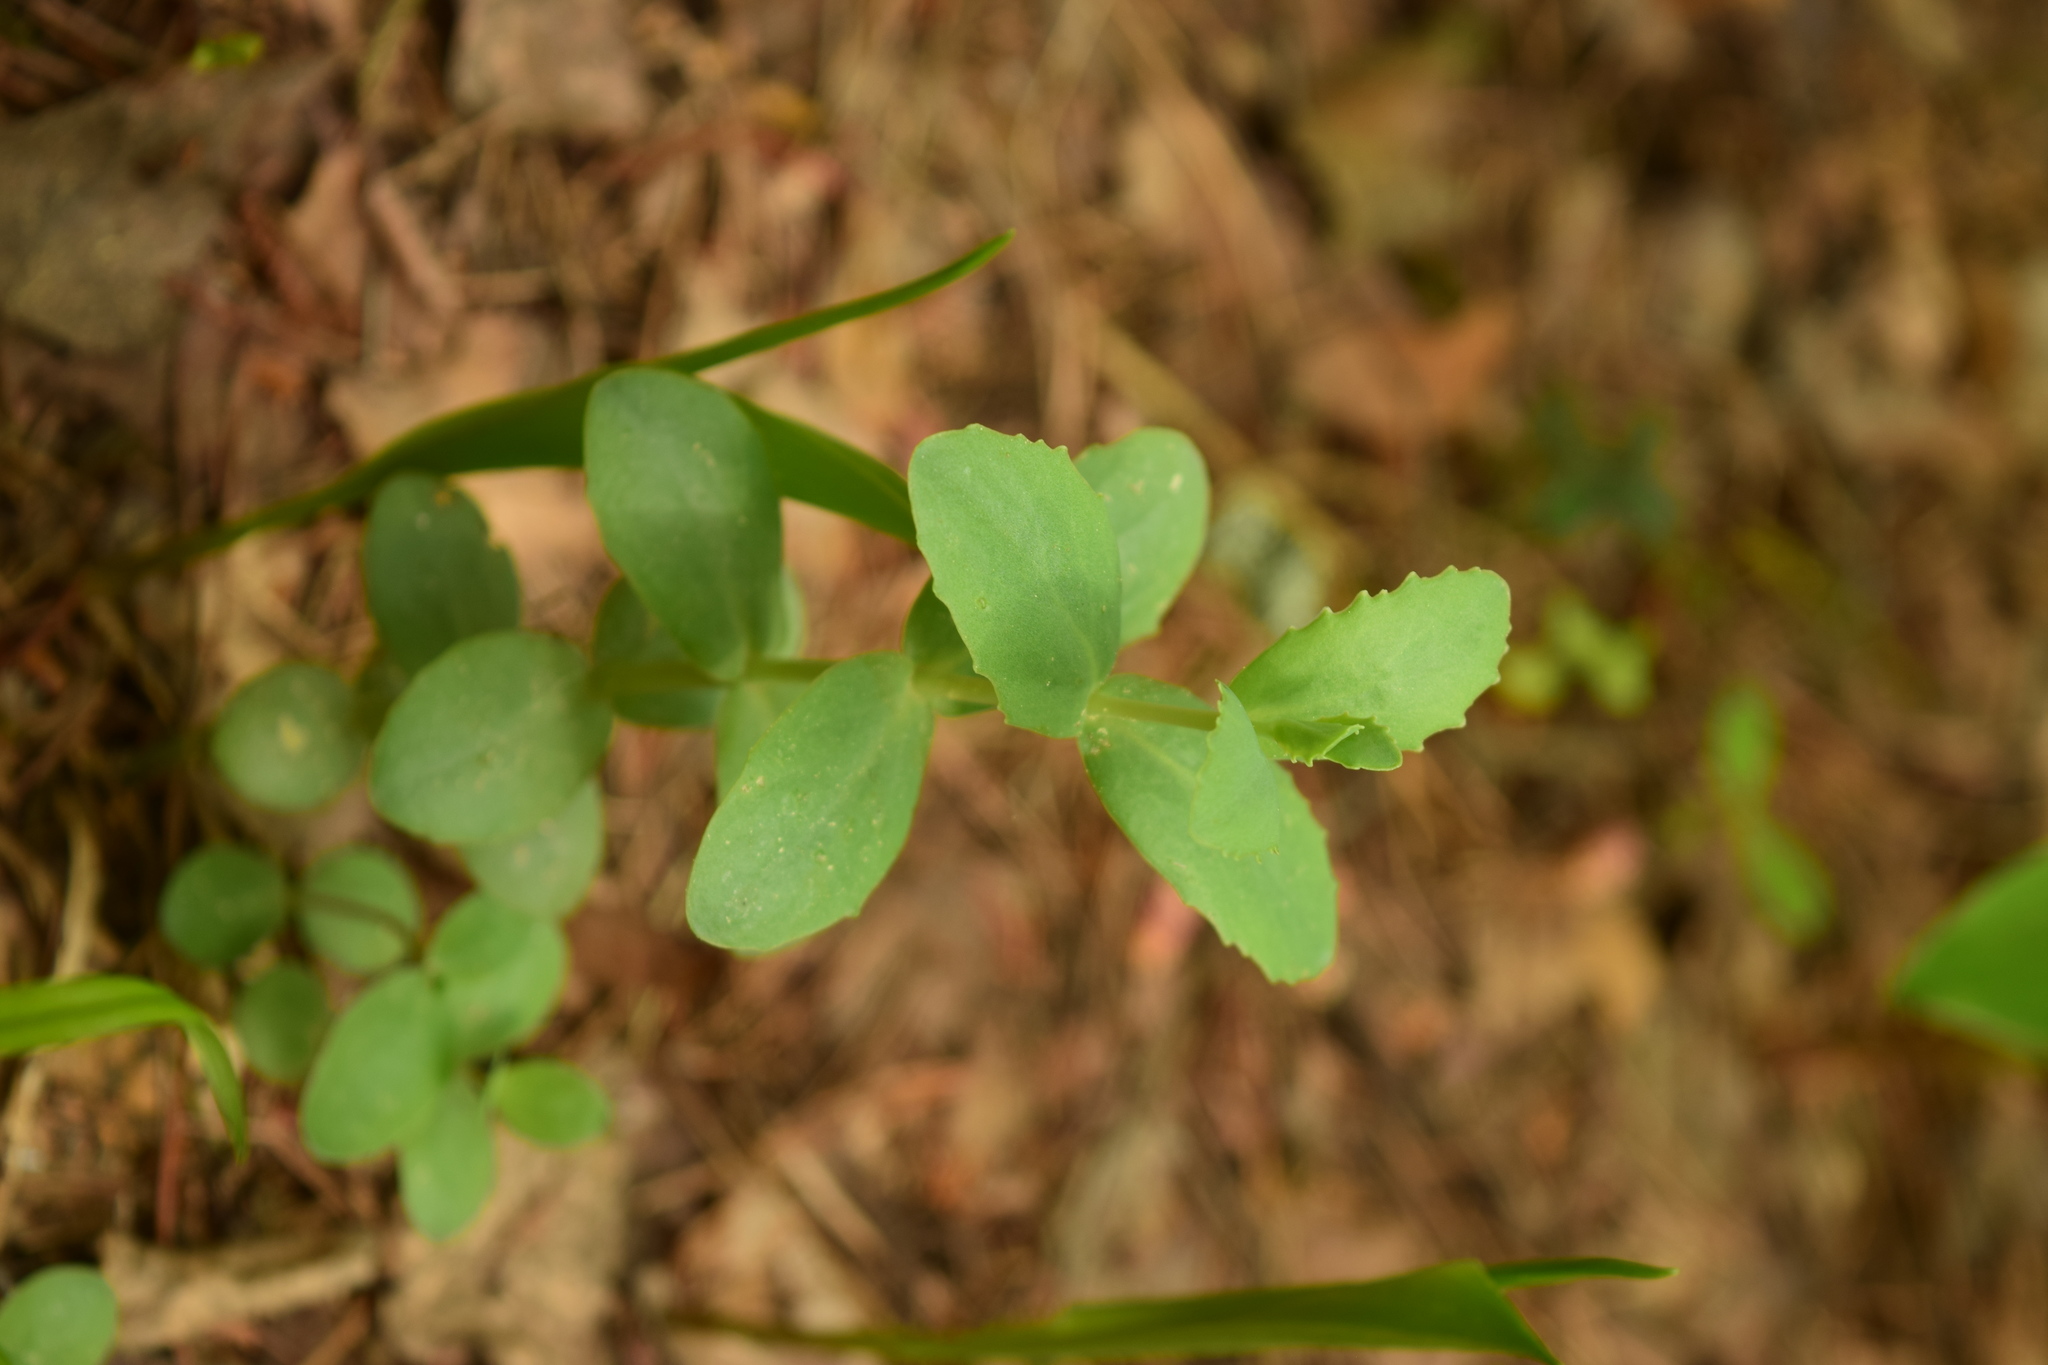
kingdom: Plantae
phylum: Tracheophyta
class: Magnoliopsida
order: Saxifragales
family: Crassulaceae
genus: Hylotelephium
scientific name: Hylotelephium maximum
